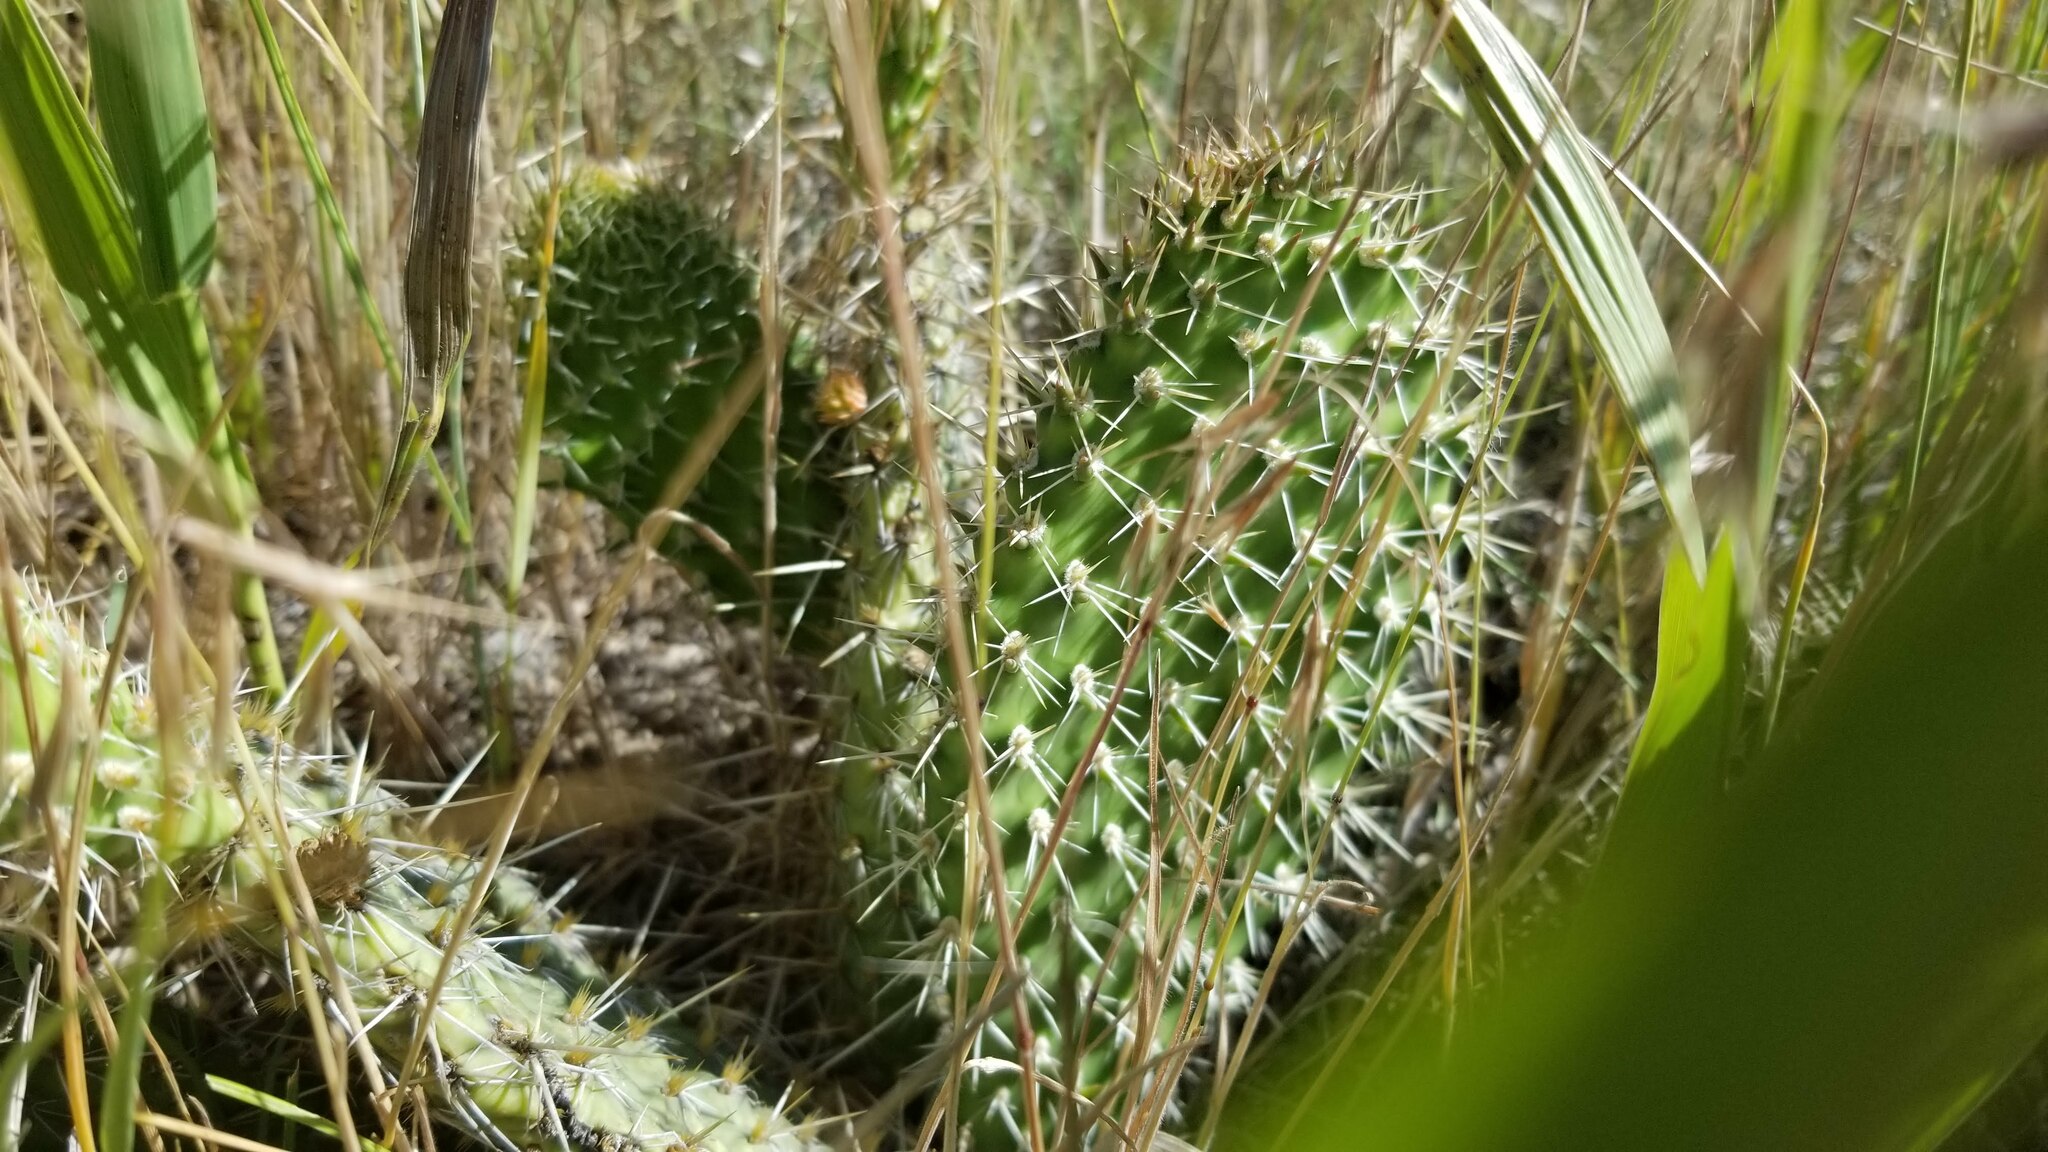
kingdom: Plantae
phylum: Tracheophyta
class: Magnoliopsida
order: Caryophyllales
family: Cactaceae
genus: Opuntia
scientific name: Opuntia polyacantha
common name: Plains prickly-pear
